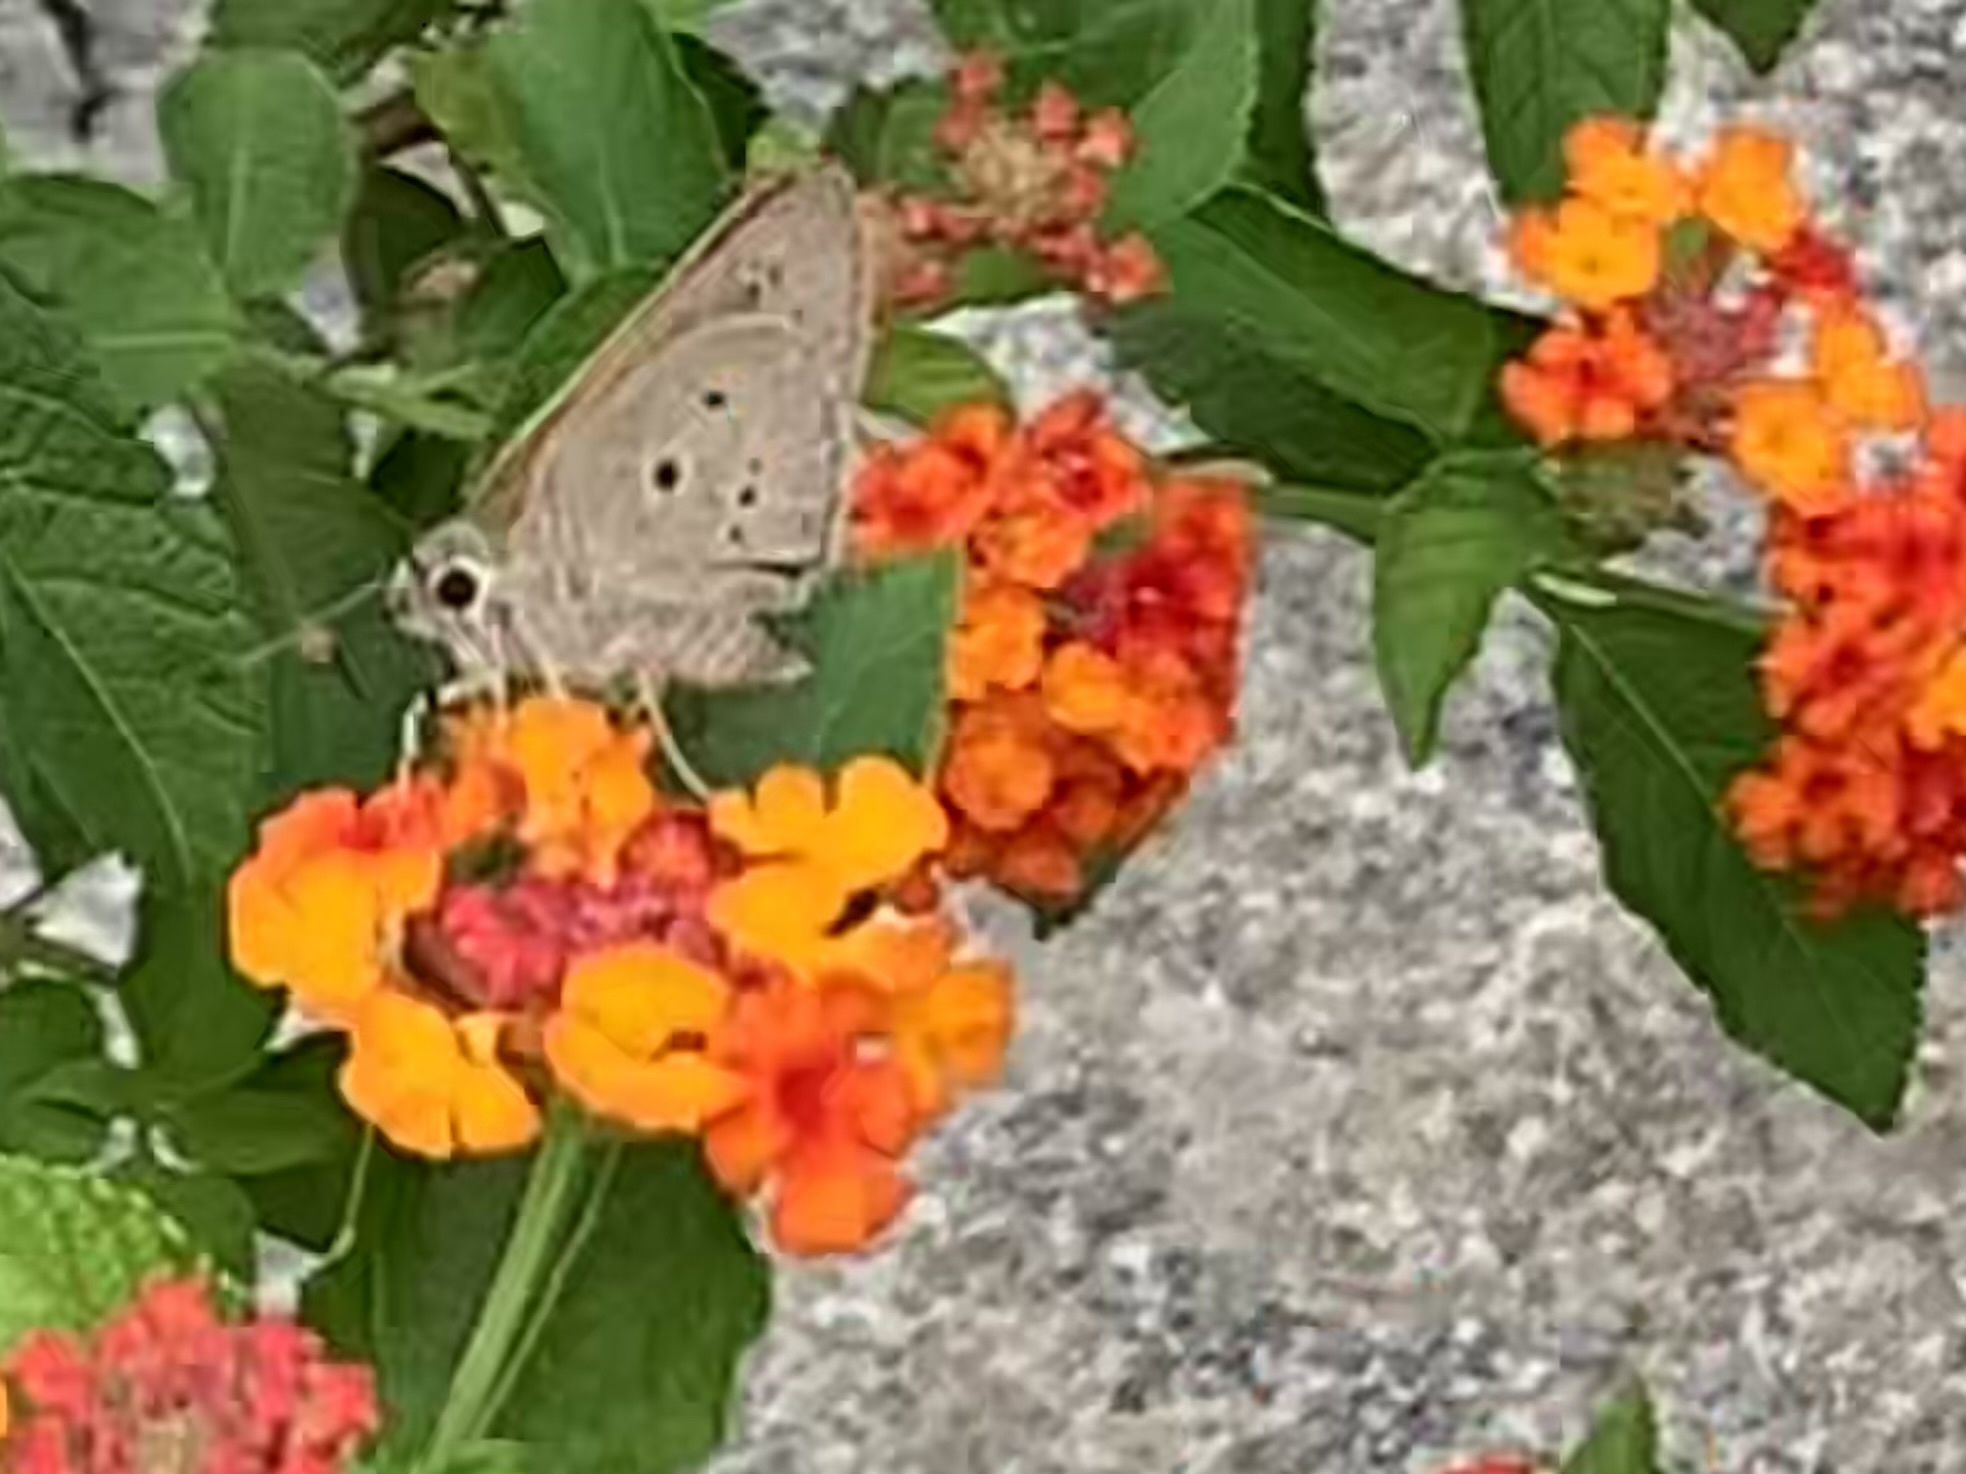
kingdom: Animalia
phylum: Arthropoda
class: Insecta
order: Lepidoptera
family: Hesperiidae
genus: Suastus
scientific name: Suastus gremius
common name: Indian palm bob
